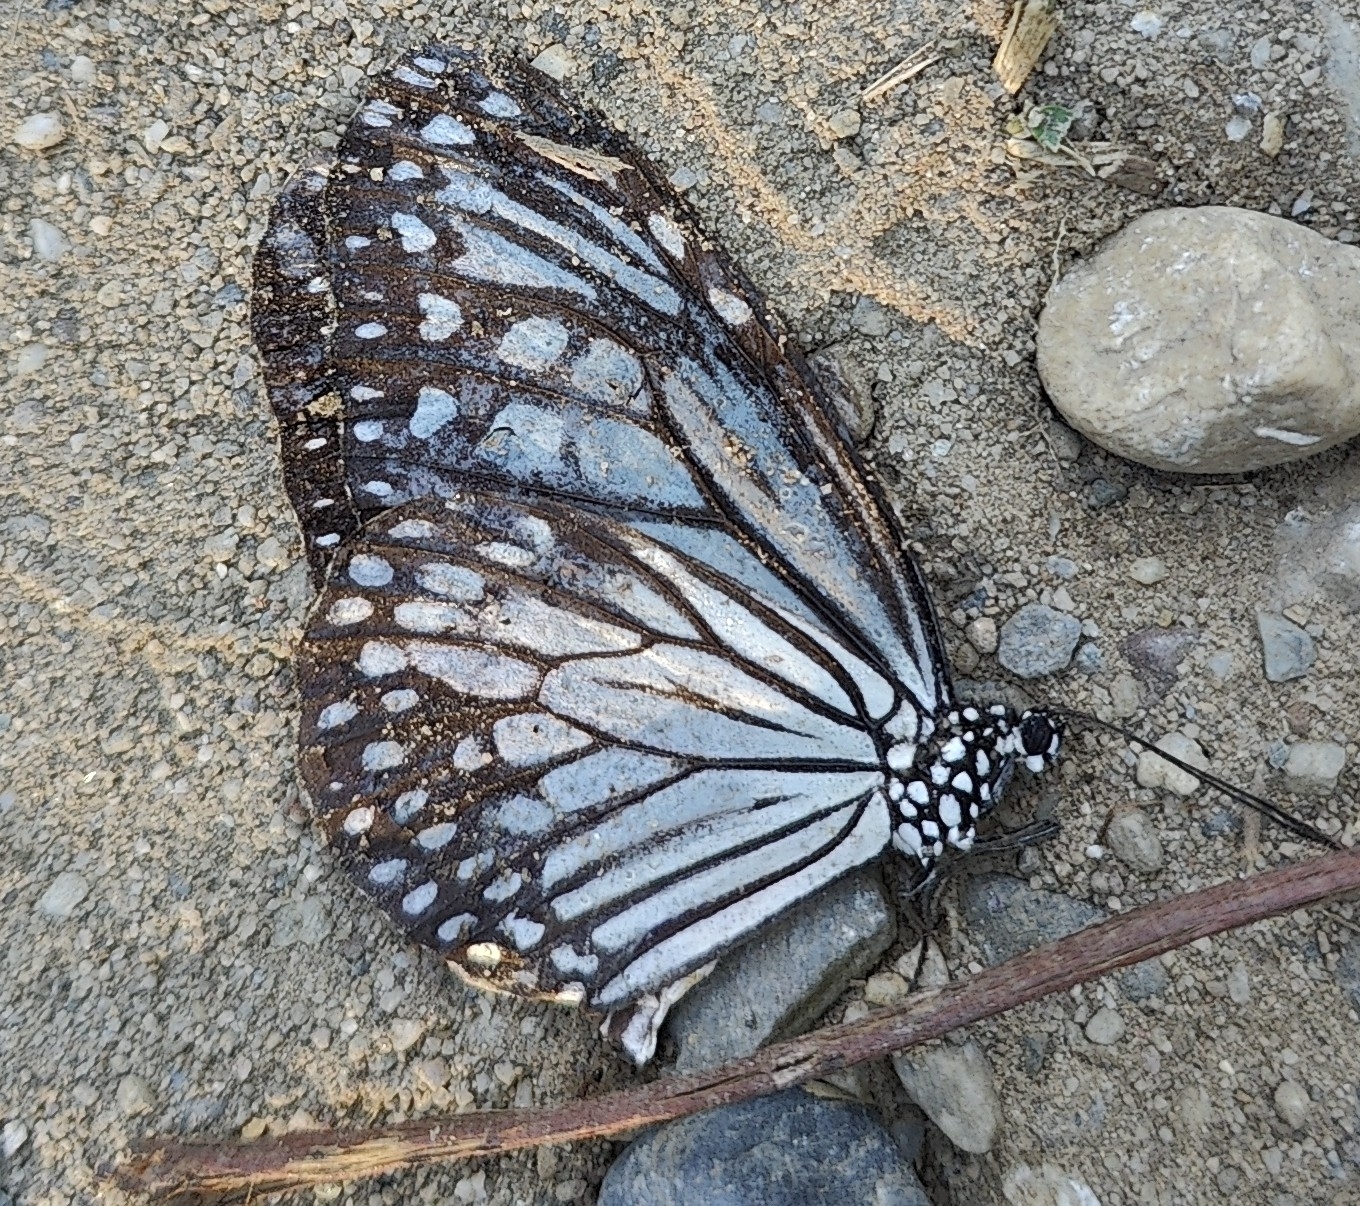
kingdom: Animalia
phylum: Arthropoda
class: Insecta
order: Lepidoptera
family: Nymphalidae
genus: Parantica
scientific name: Parantica aglea
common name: Glassy tiger
